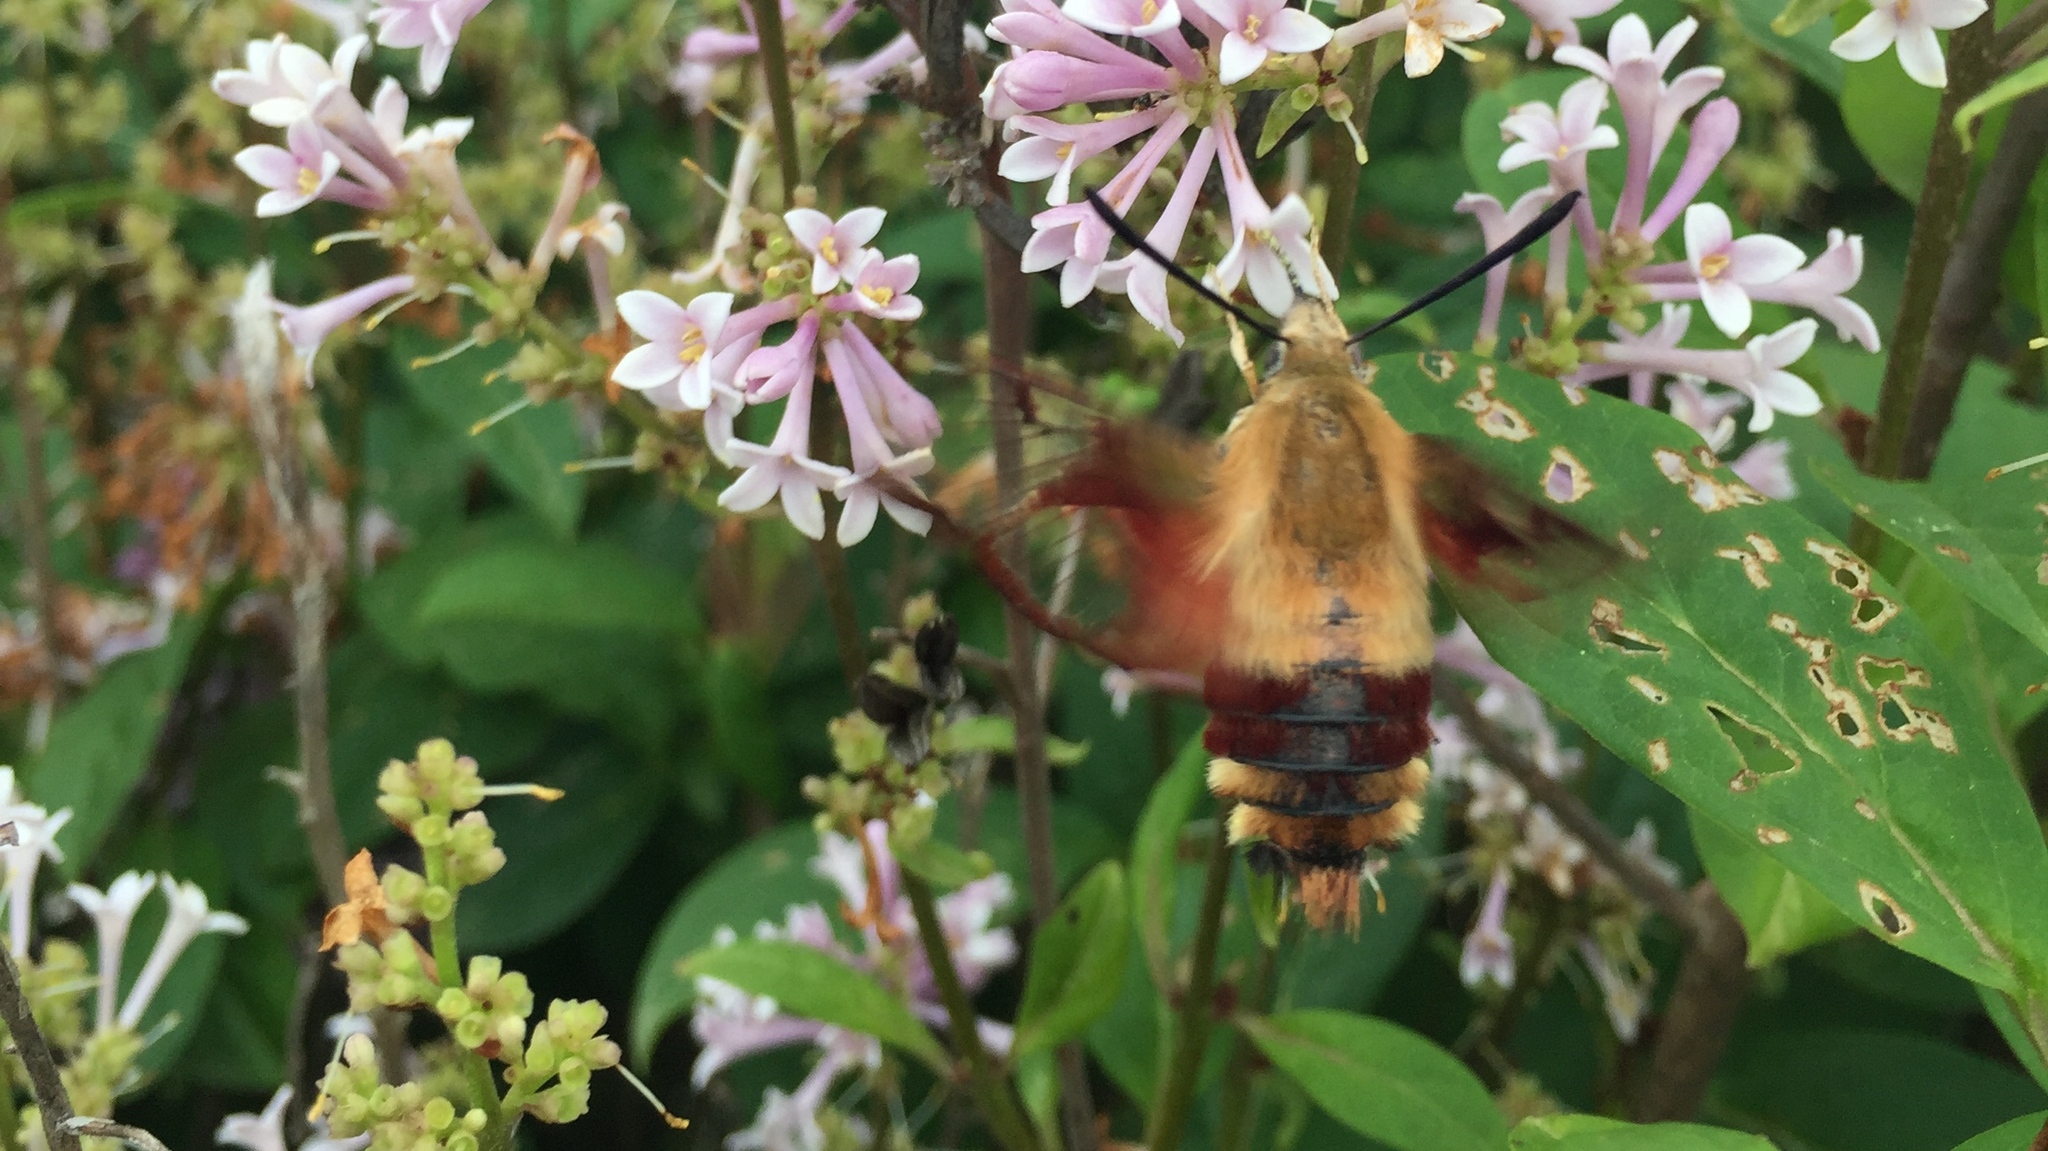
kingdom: Animalia
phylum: Arthropoda
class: Insecta
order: Lepidoptera
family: Sphingidae
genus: Hemaris
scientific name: Hemaris thysbe
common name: Common clear-wing
